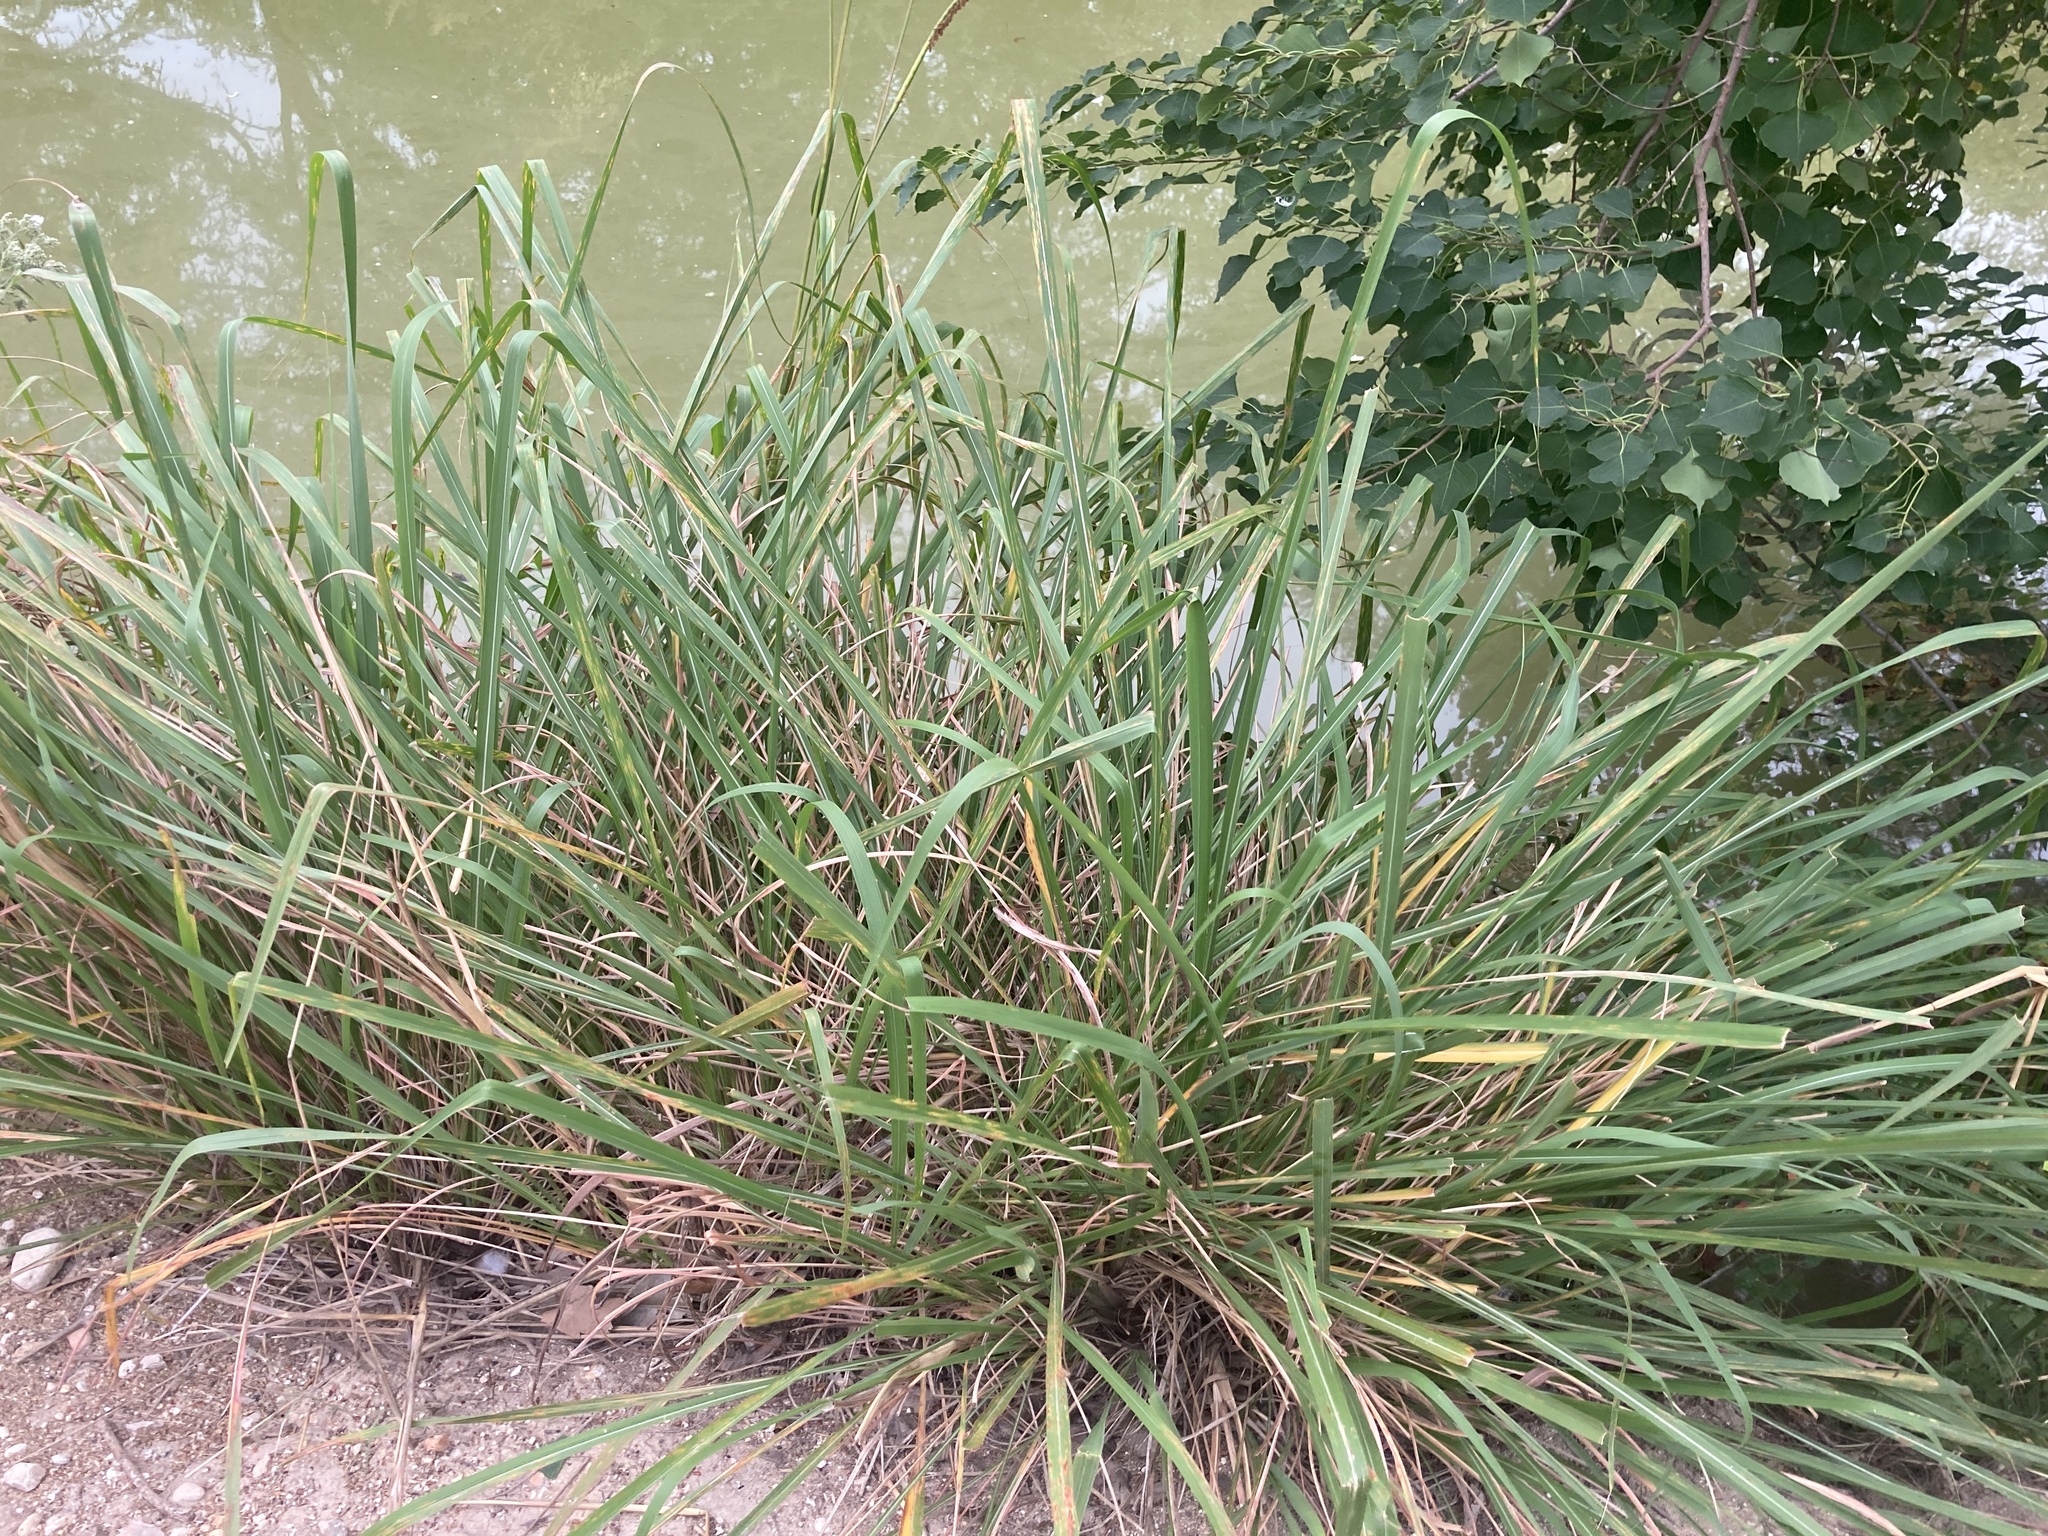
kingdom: Plantae
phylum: Tracheophyta
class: Liliopsida
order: Poales
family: Poaceae
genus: Tripsacum
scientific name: Tripsacum dactyloides
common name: Buffalo-grass
